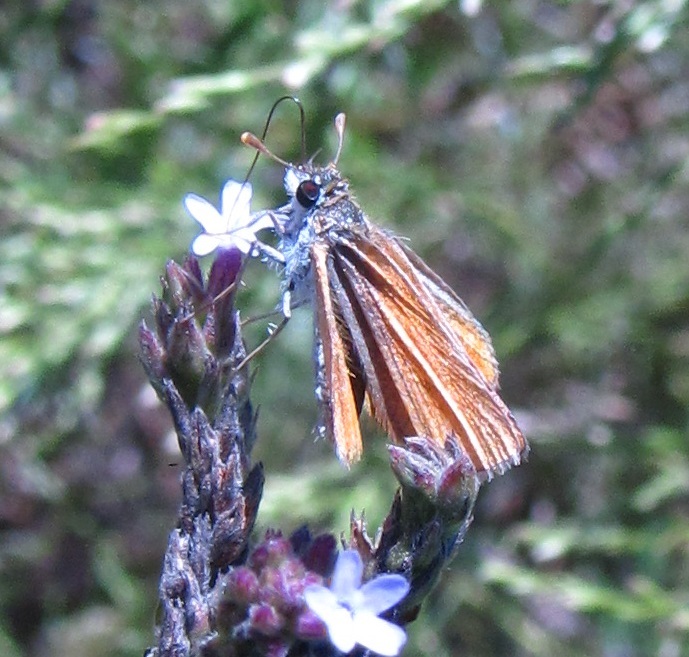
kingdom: Animalia
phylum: Arthropoda
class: Insecta
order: Lepidoptera
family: Hesperiidae
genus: Copaeodes
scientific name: Copaeodes minima
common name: Southern skipperling
